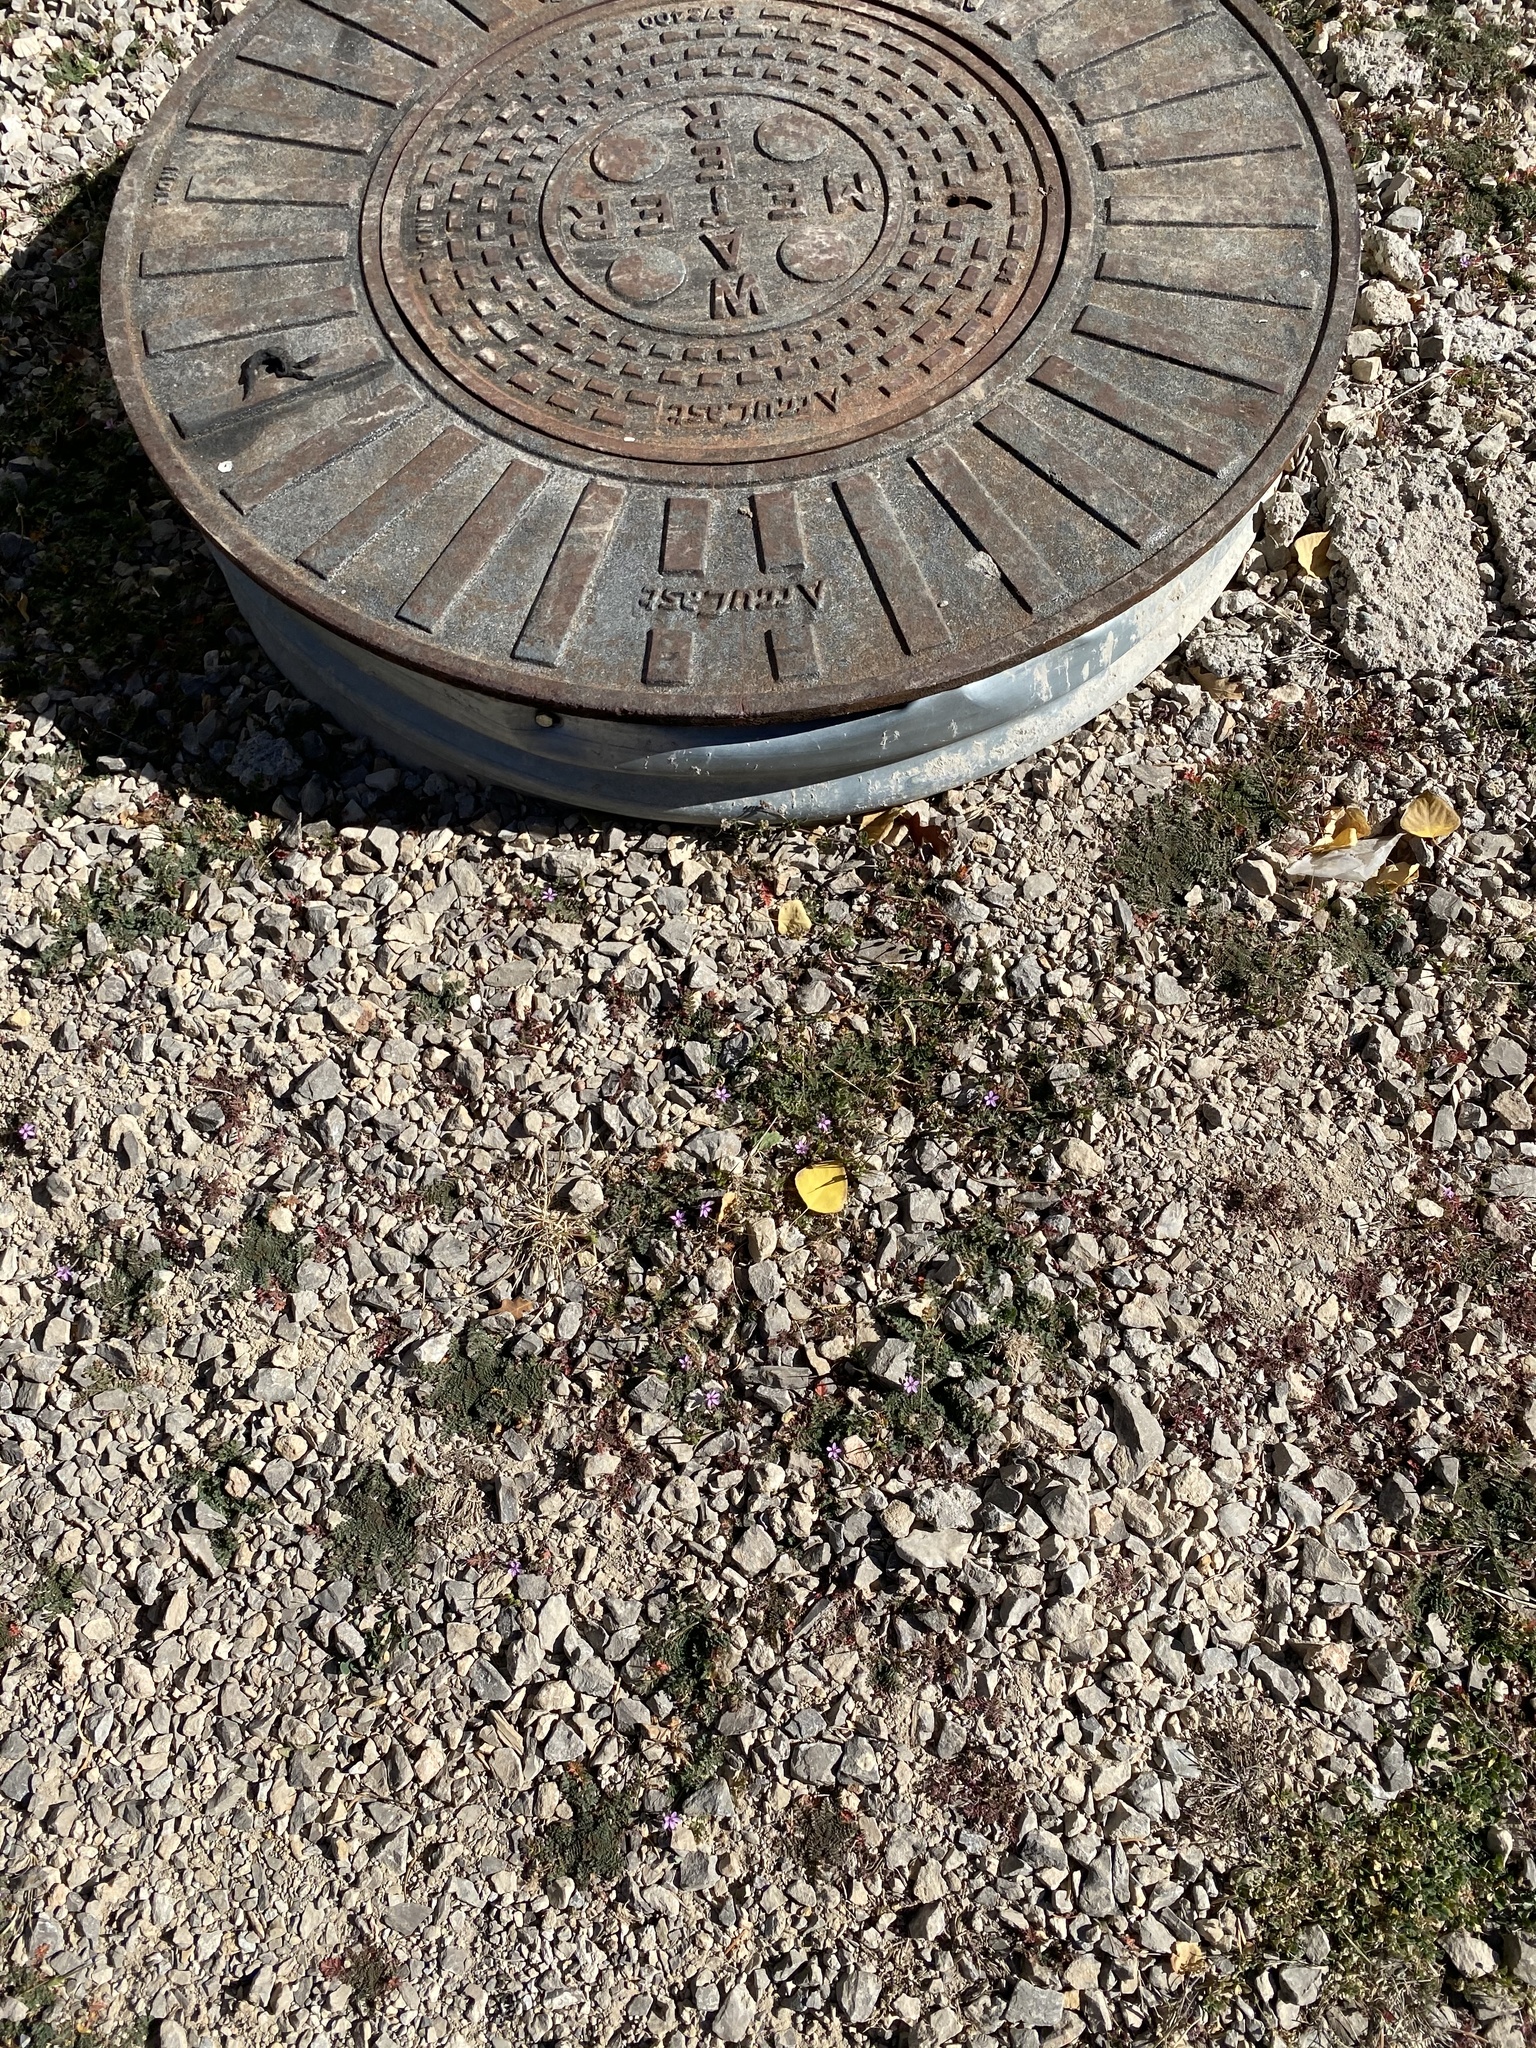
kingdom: Plantae
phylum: Tracheophyta
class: Magnoliopsida
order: Geraniales
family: Geraniaceae
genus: Erodium
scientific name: Erodium cicutarium
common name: Common stork's-bill
